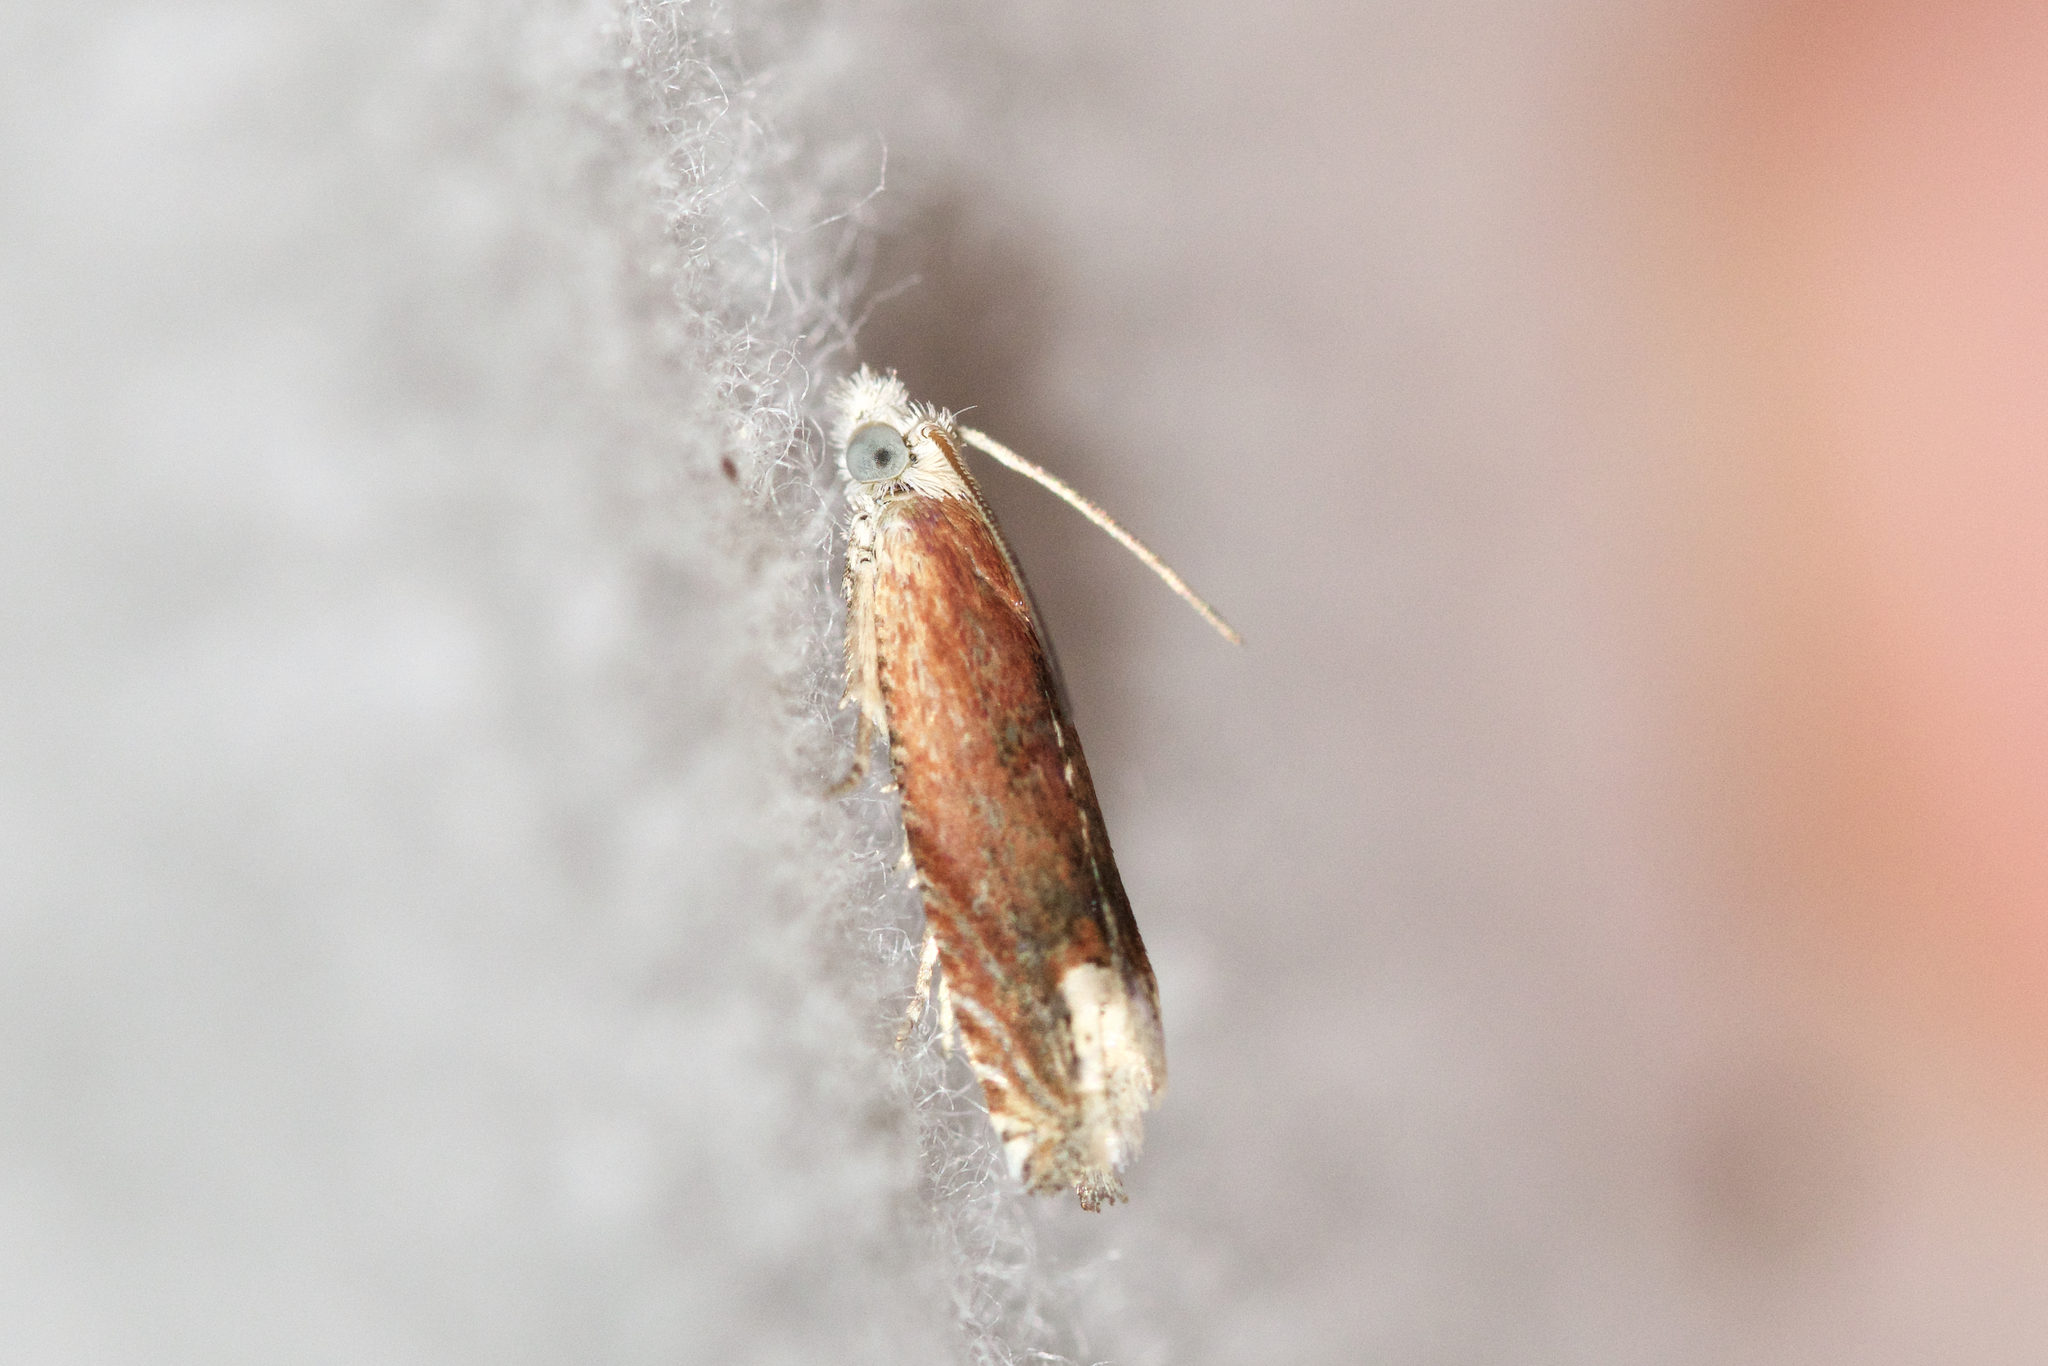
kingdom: Animalia
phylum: Arthropoda
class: Insecta
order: Lepidoptera
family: Tortricidae
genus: Eucosma
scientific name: Eucosma raracana
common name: Reddish eucosma moth
